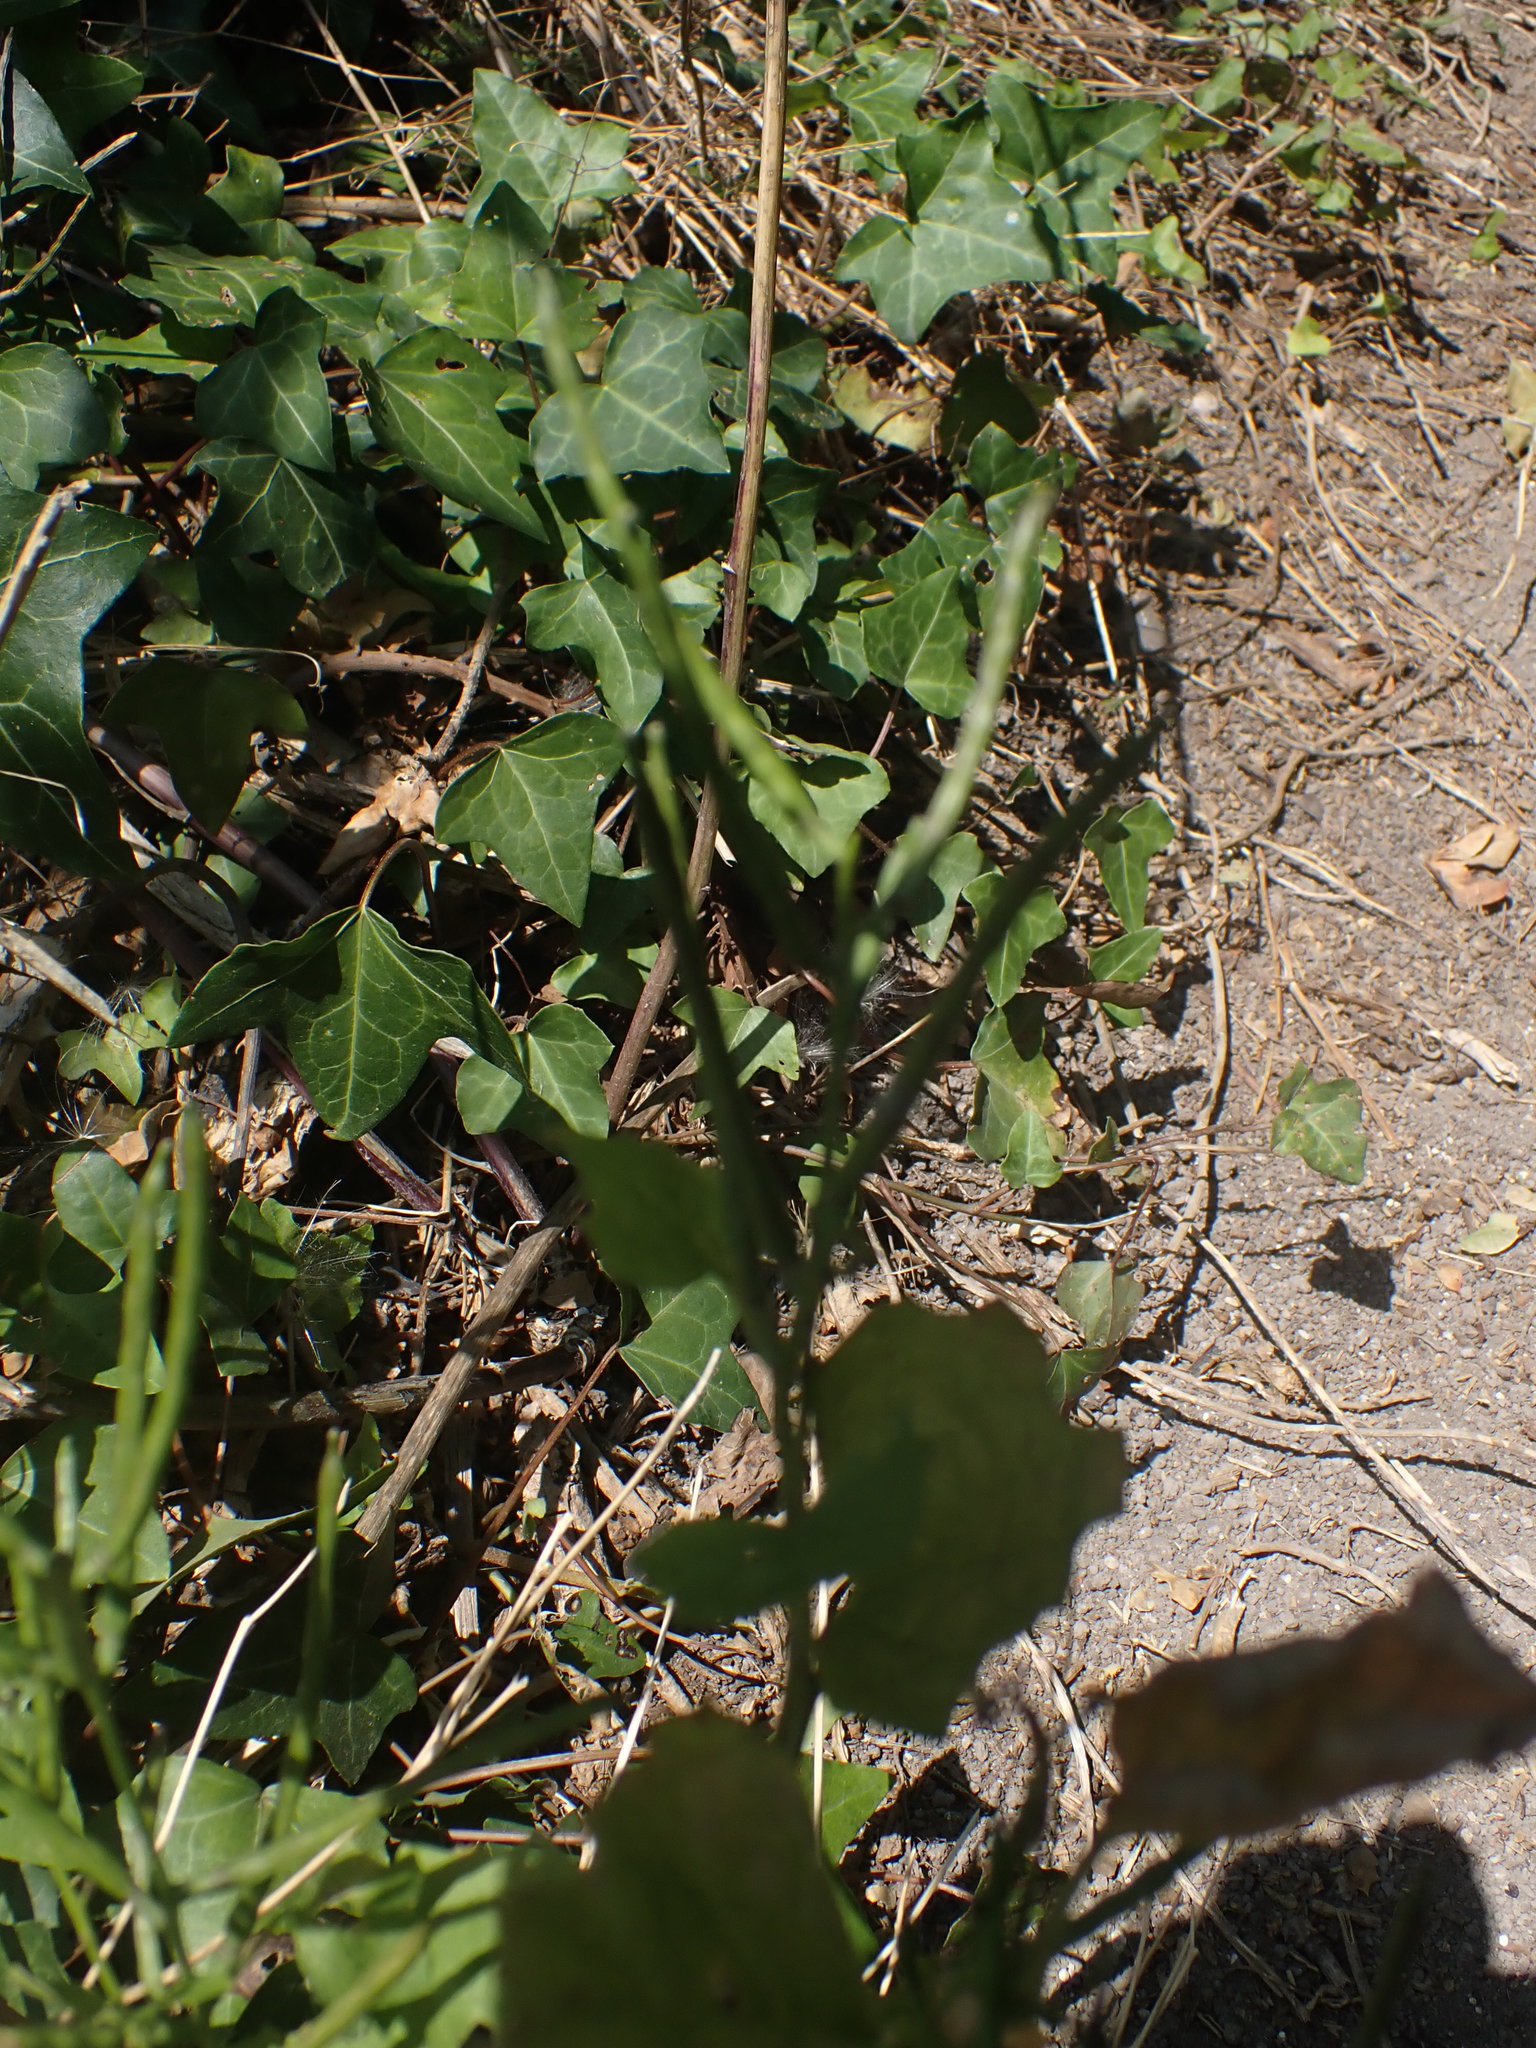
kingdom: Plantae
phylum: Tracheophyta
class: Magnoliopsida
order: Brassicales
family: Brassicaceae
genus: Alliaria
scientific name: Alliaria petiolata
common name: Garlic mustard
